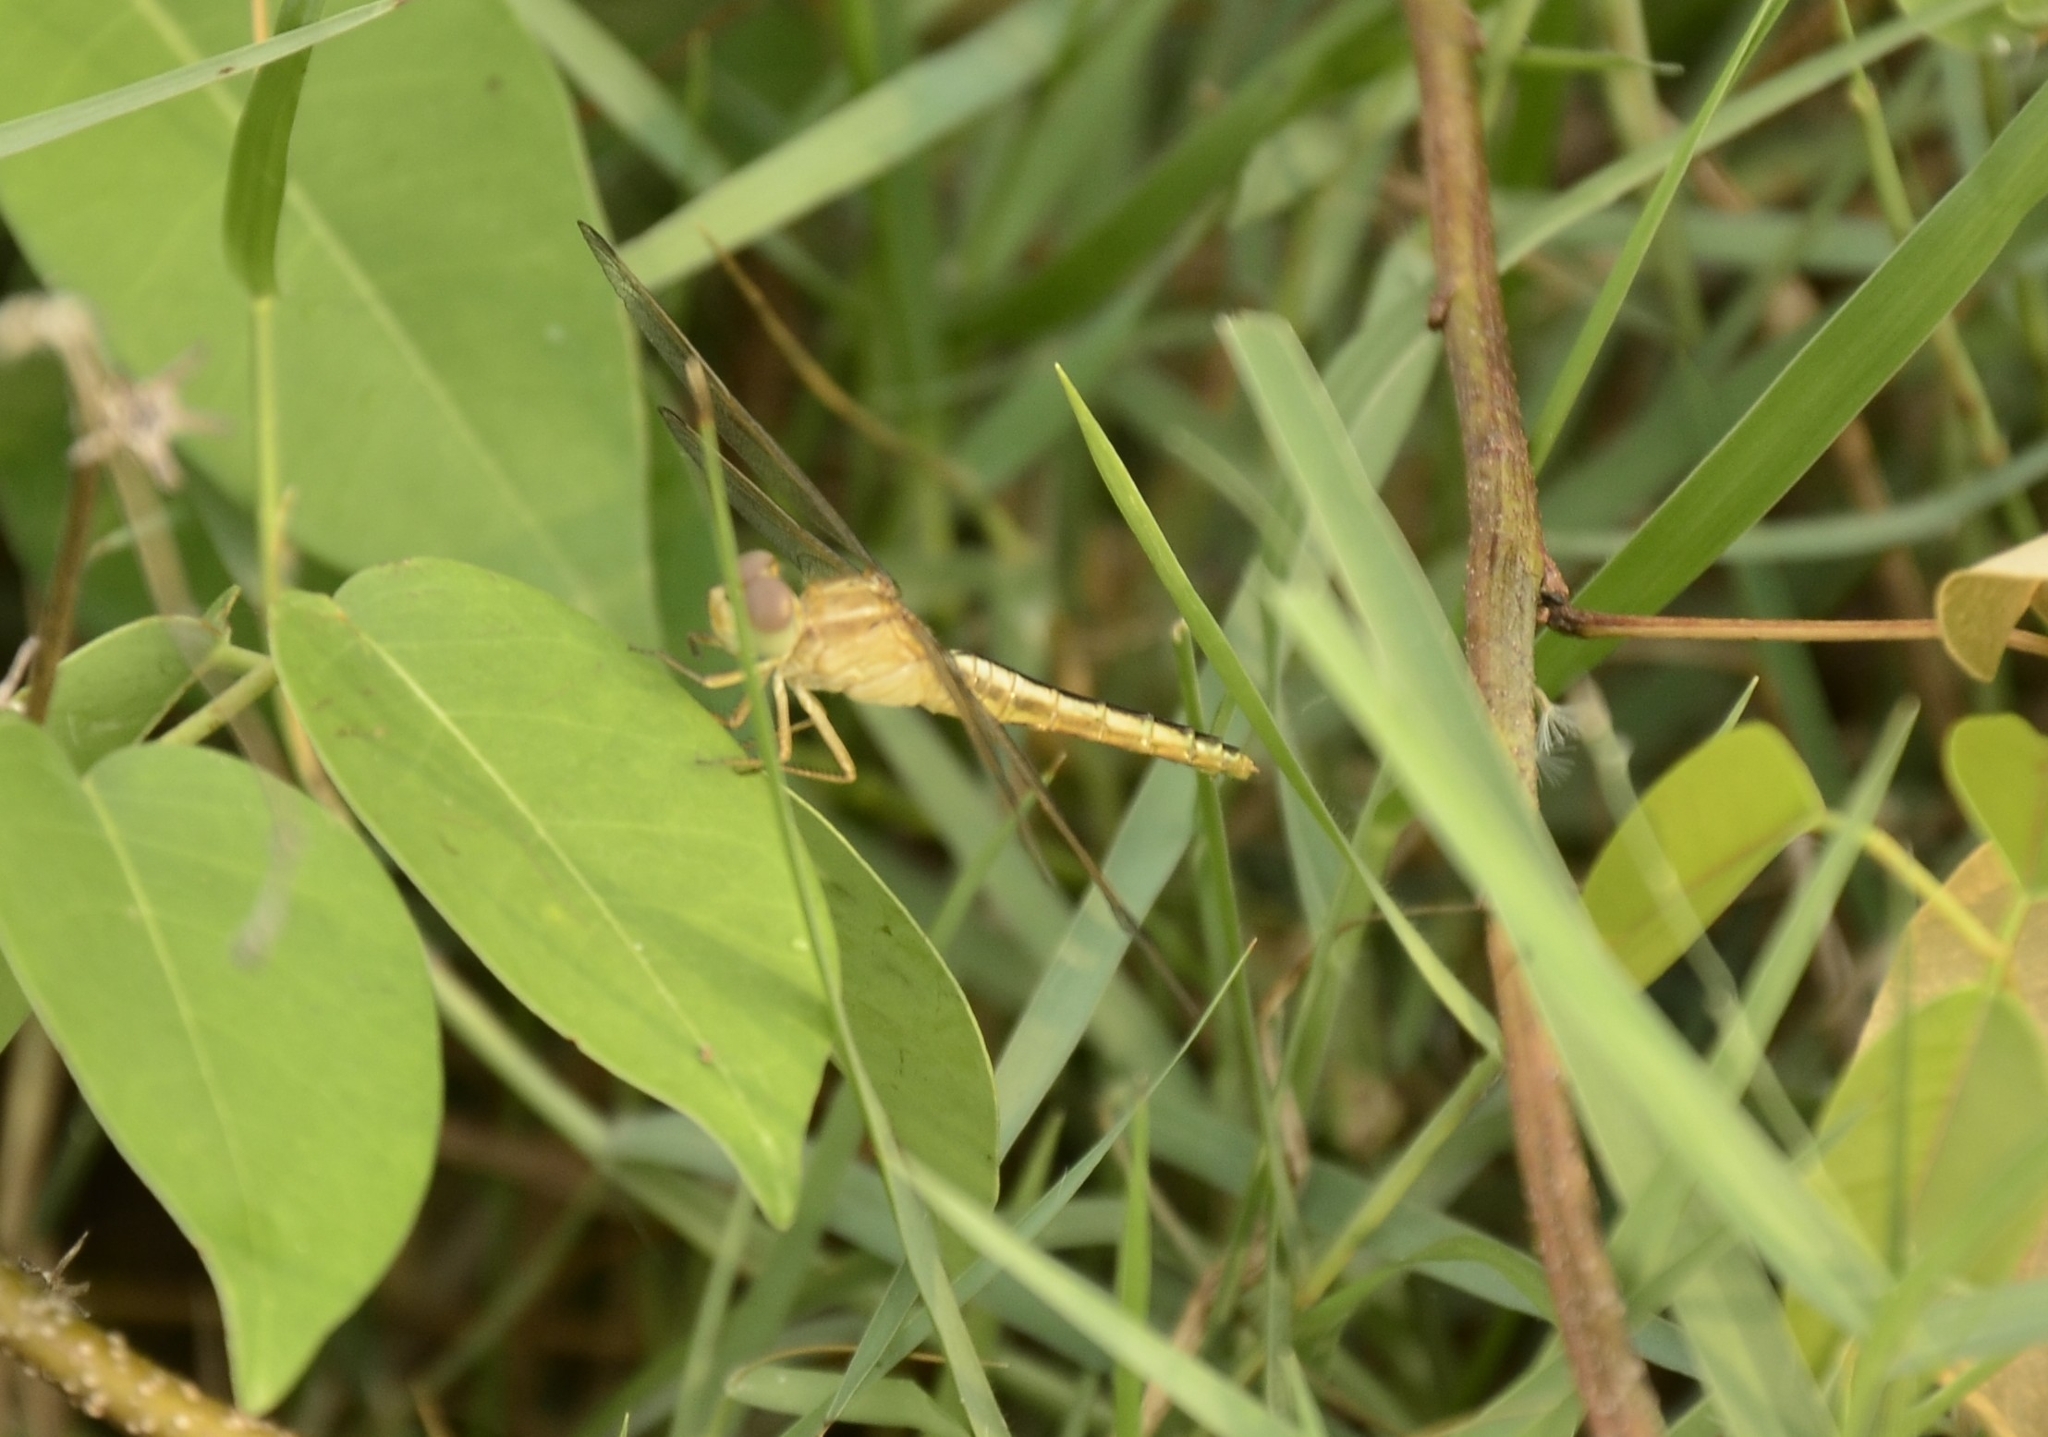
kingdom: Animalia
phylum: Arthropoda
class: Insecta
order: Odonata
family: Libellulidae
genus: Crocothemis
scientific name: Crocothemis servilia
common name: Scarlet skimmer
